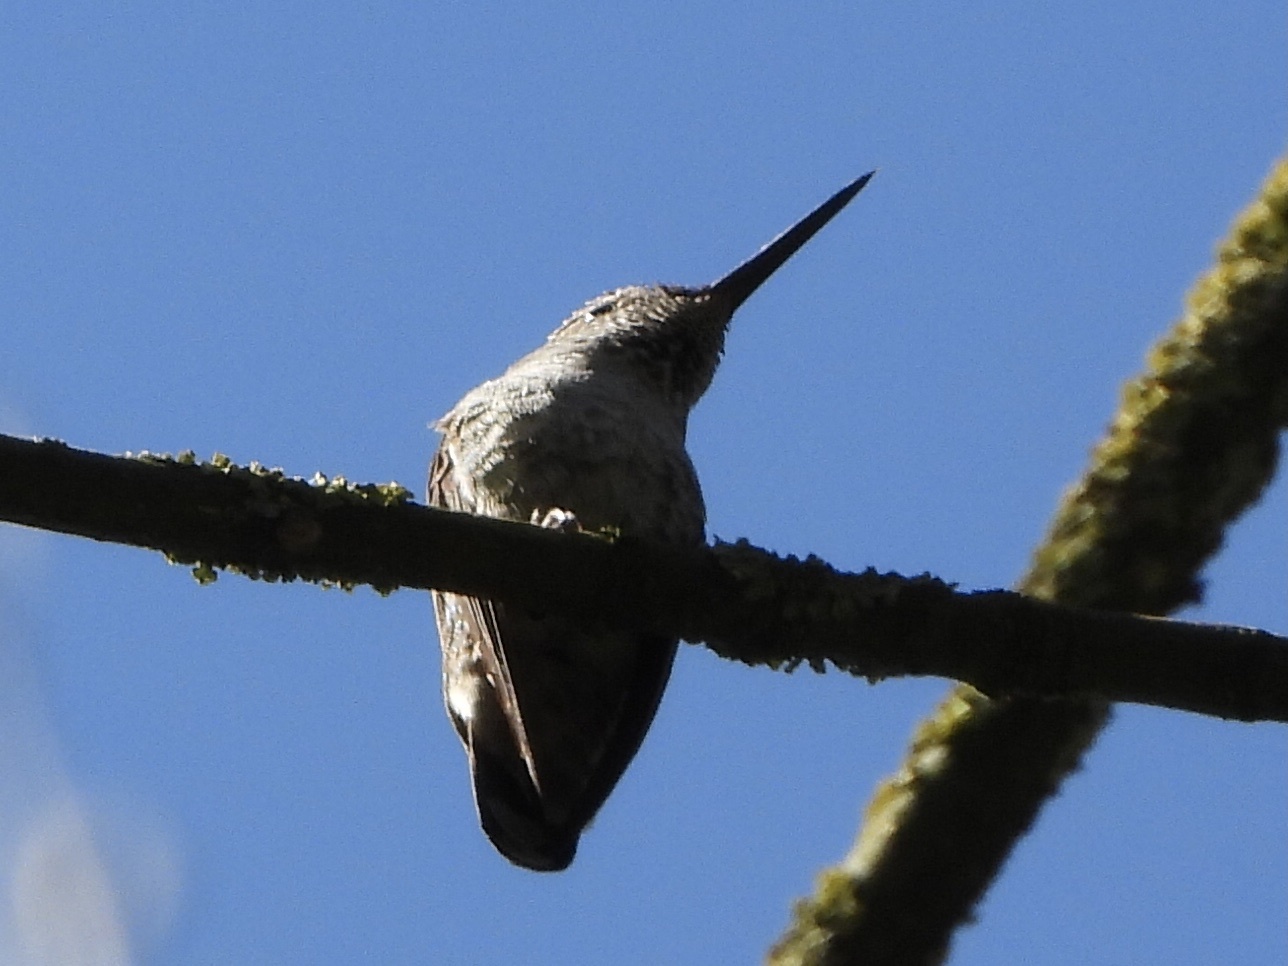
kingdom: Animalia
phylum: Chordata
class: Aves
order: Apodiformes
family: Trochilidae
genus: Calypte
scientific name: Calypte anna
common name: Anna's hummingbird
